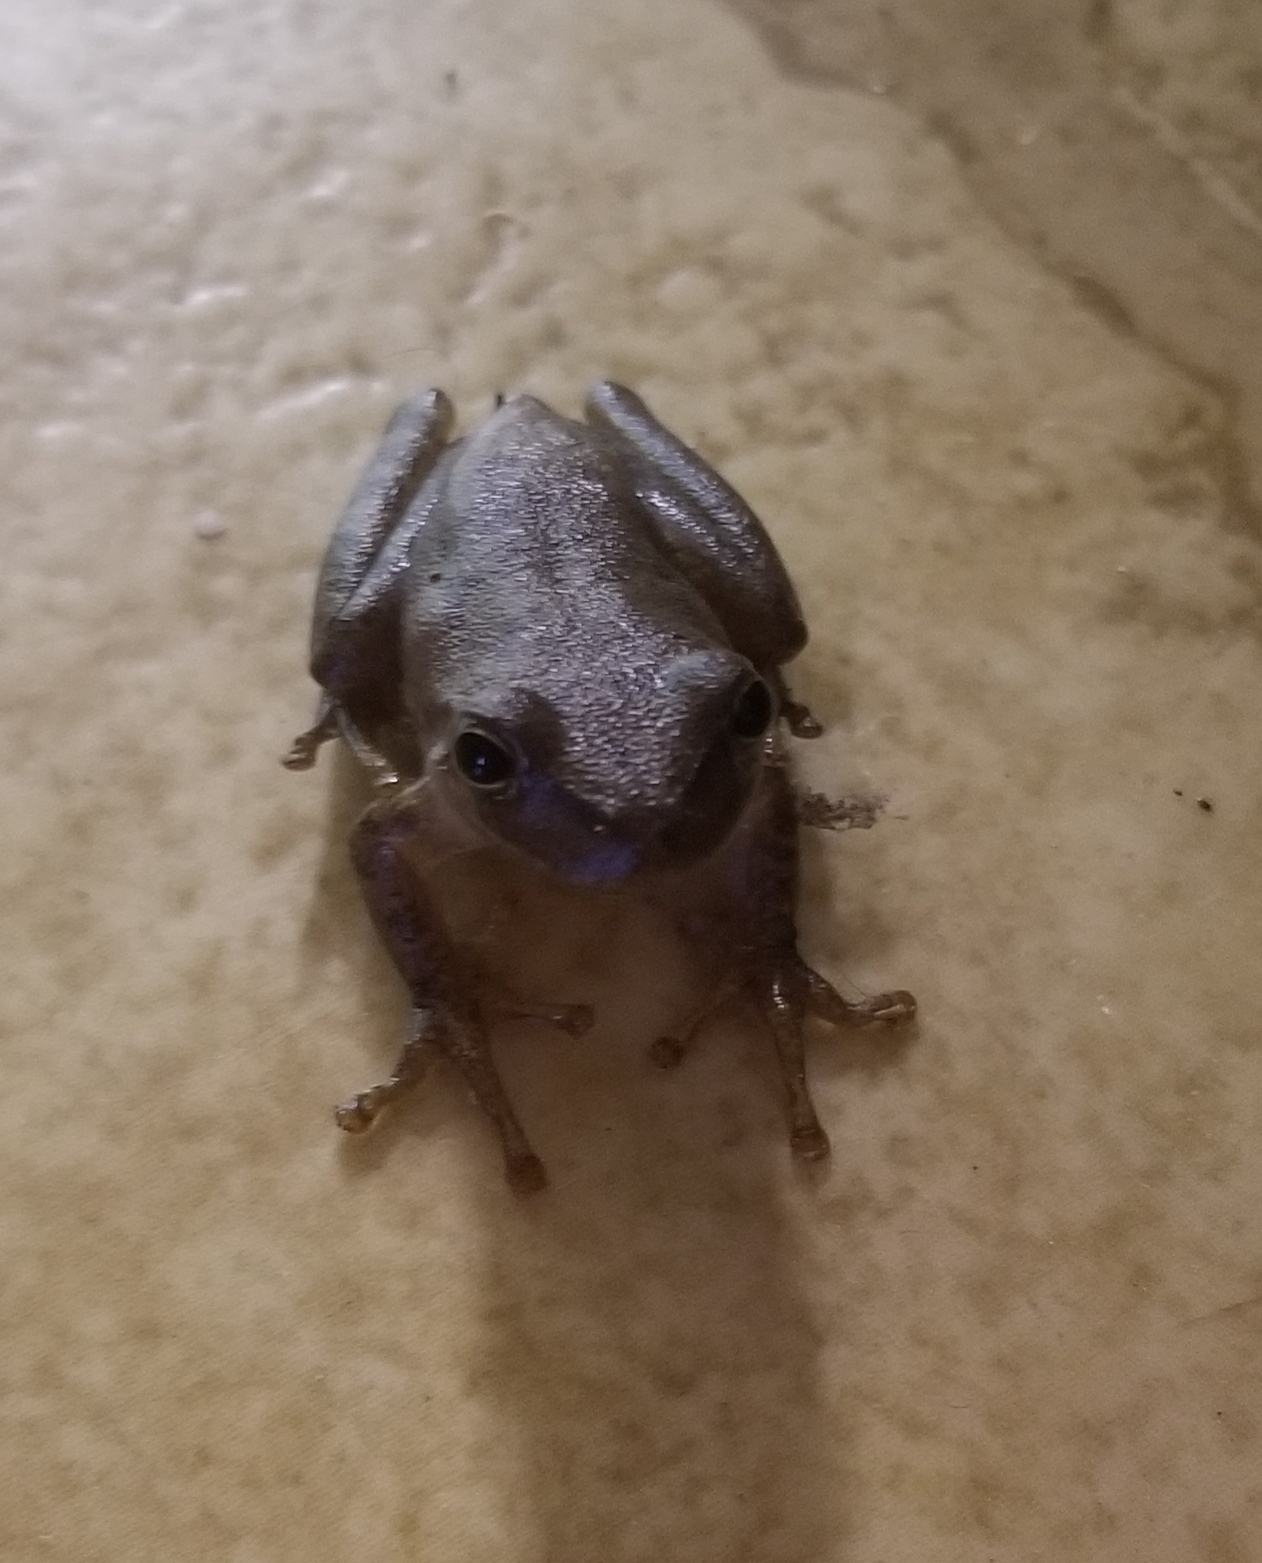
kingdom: Animalia
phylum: Chordata
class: Amphibia
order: Anura
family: Hylidae
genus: Dryophytes
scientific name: Dryophytes squirellus
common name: Squirrel treefrog
